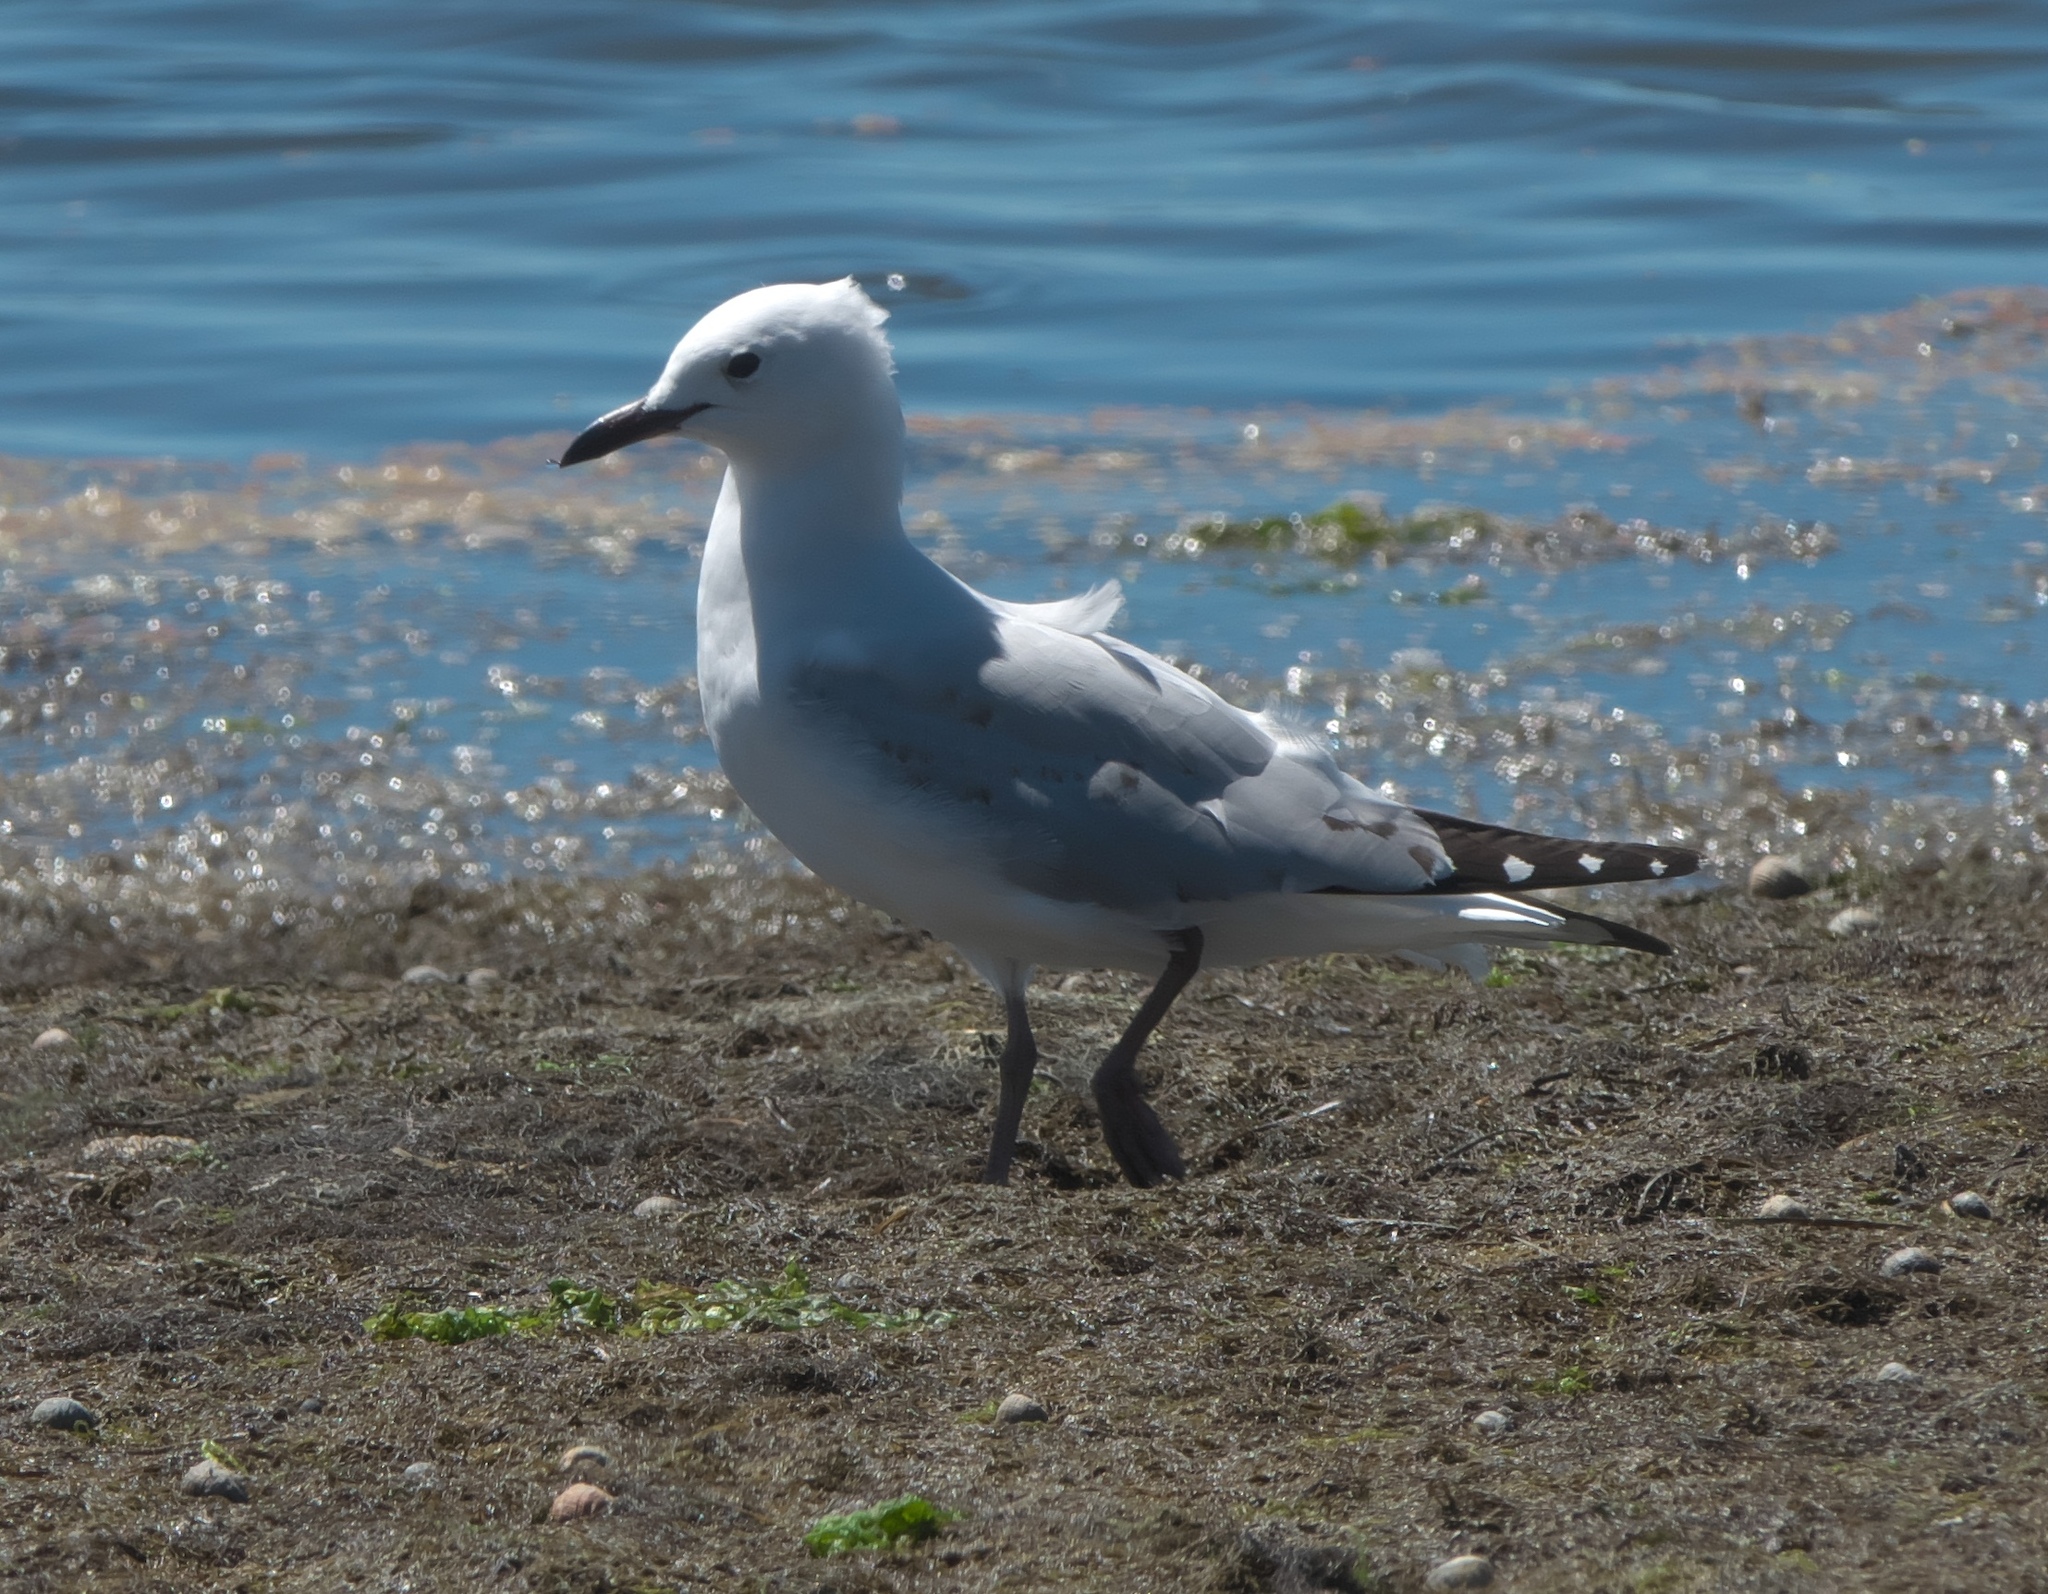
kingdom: Animalia
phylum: Chordata
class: Aves
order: Charadriiformes
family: Laridae
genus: Chroicocephalus
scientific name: Chroicocephalus novaehollandiae
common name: Silver gull
